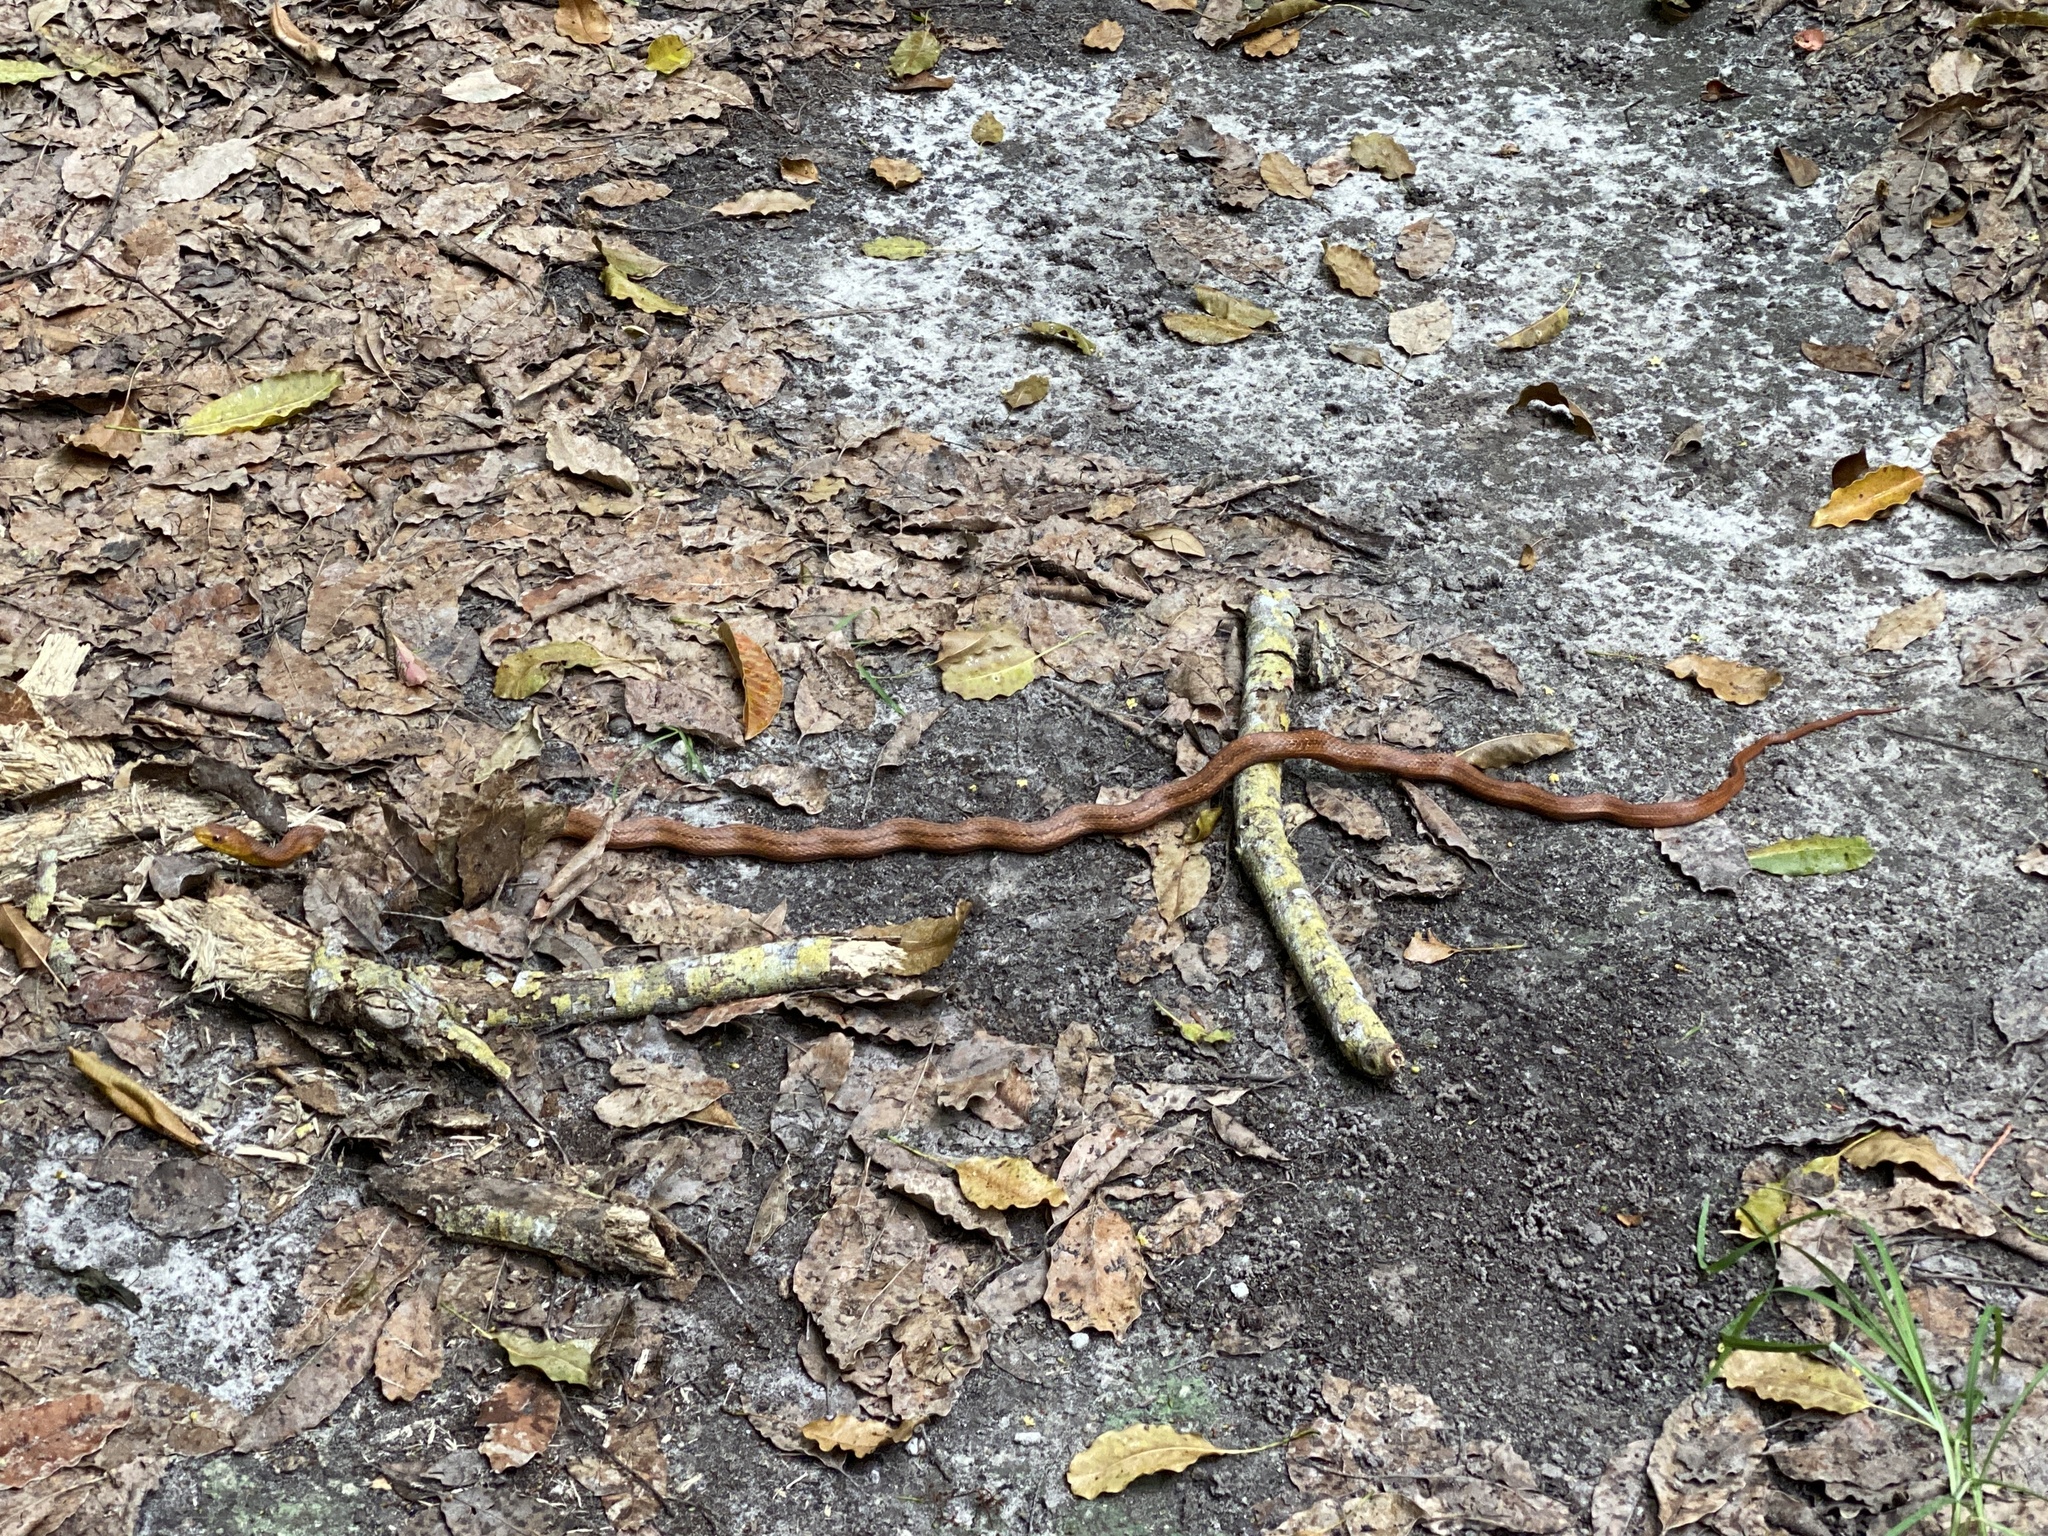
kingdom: Animalia
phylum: Chordata
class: Squamata
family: Colubridae
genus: Pantherophis
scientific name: Pantherophis alleghaniensis
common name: Eastern rat snake
